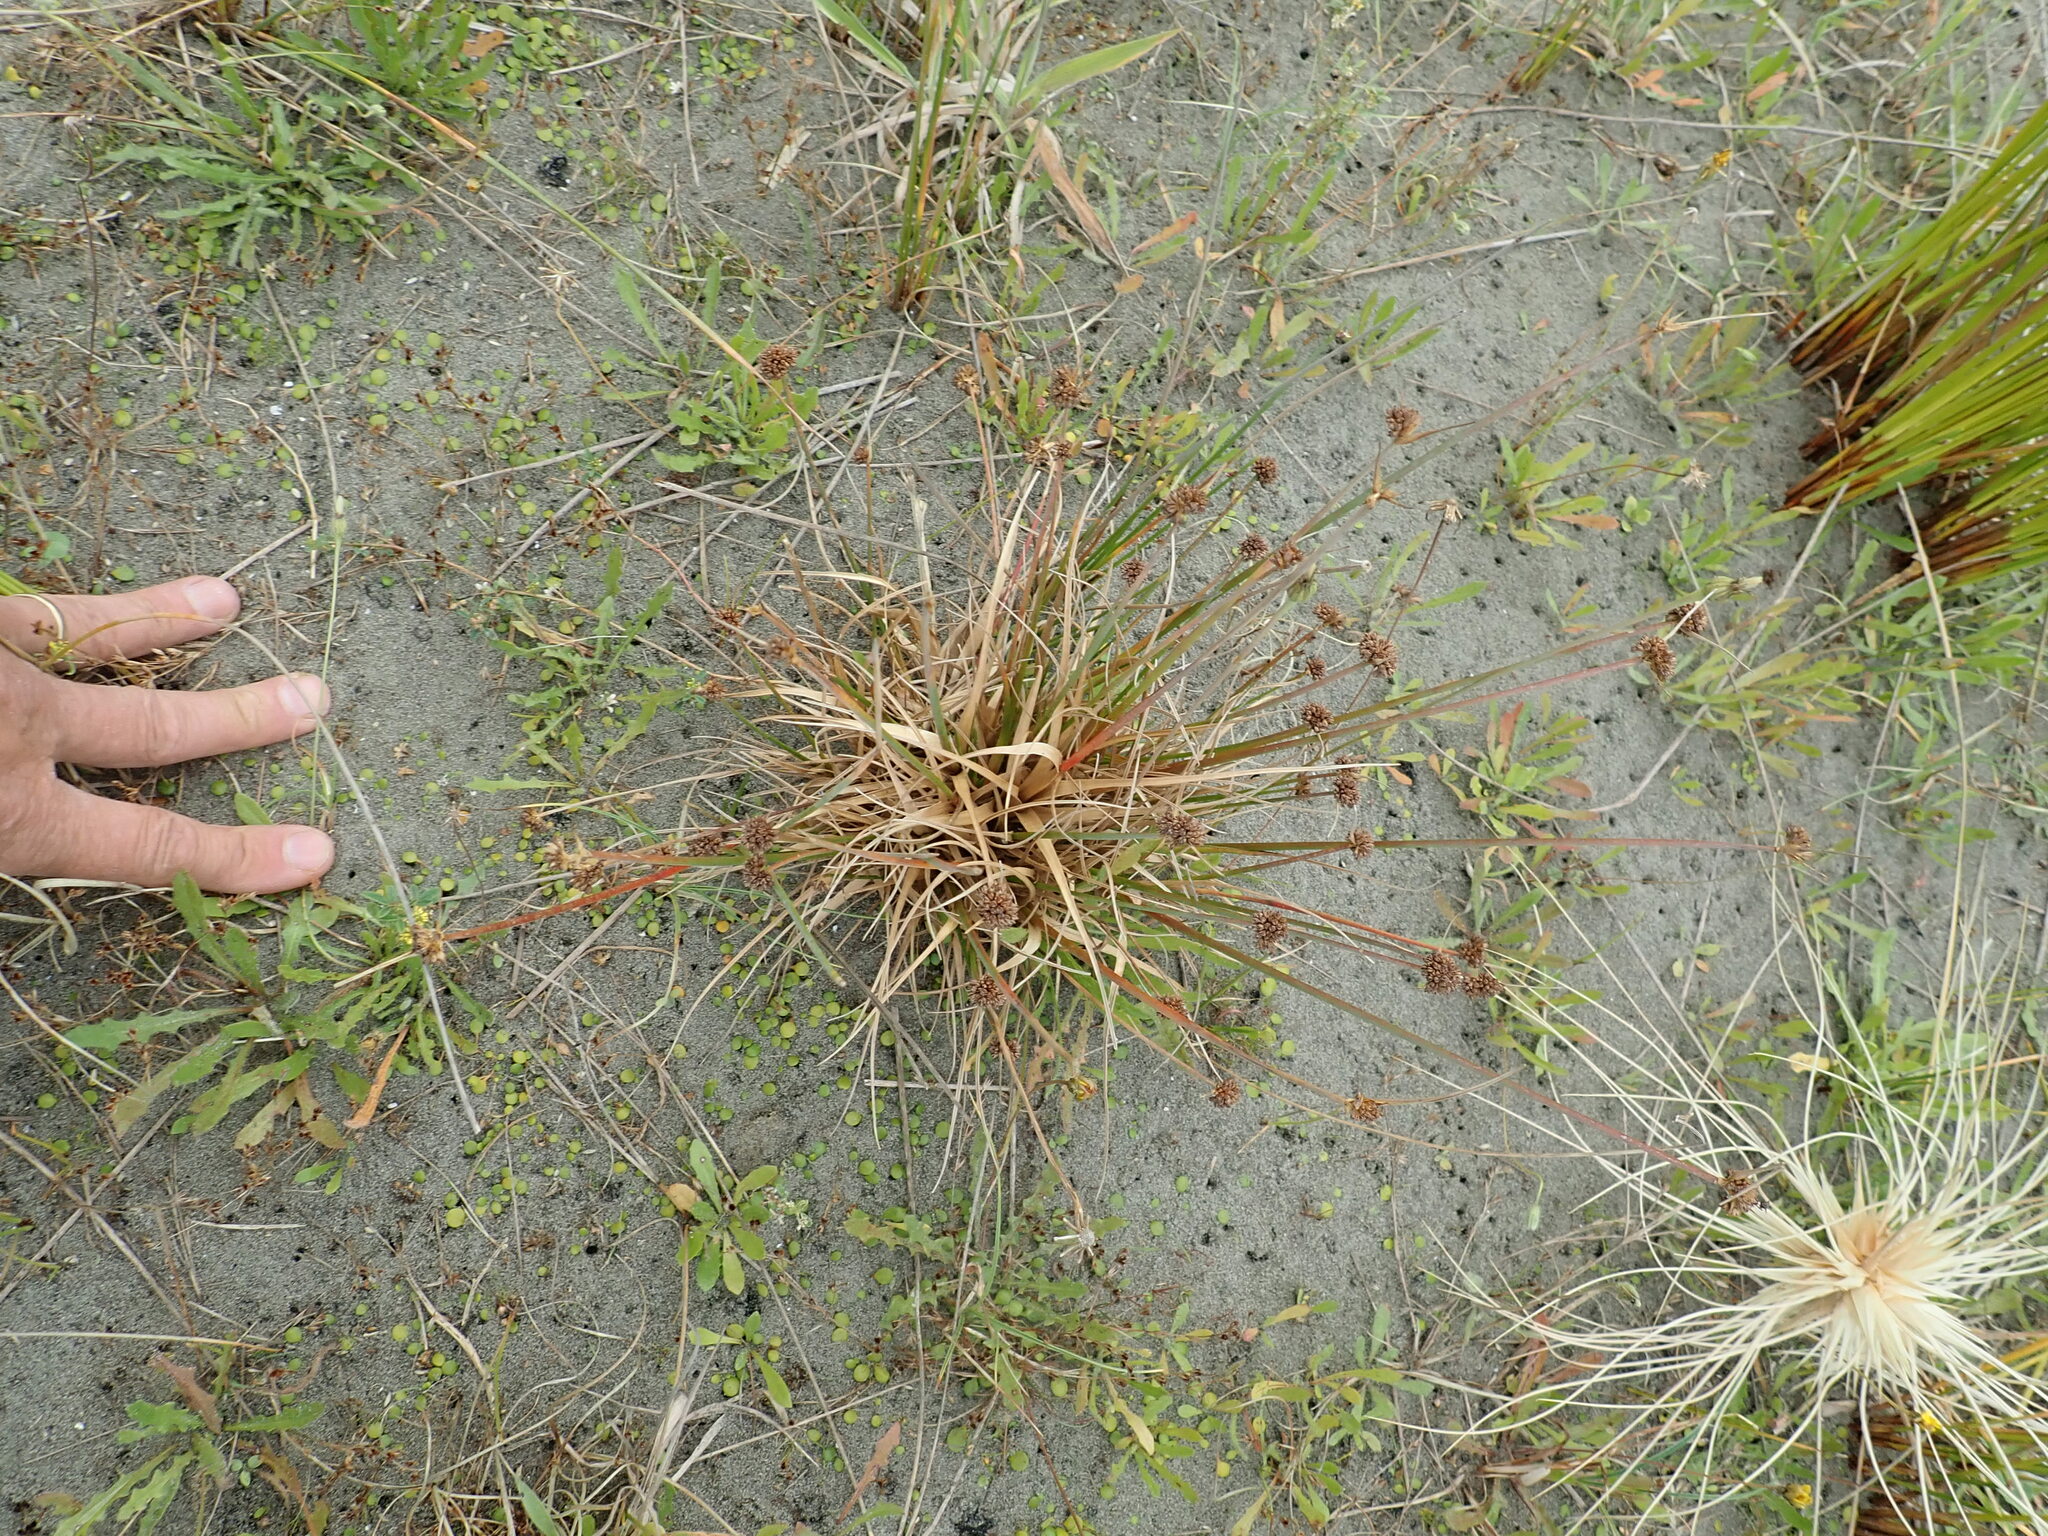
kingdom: Plantae
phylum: Tracheophyta
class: Liliopsida
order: Poales
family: Juncaceae
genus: Juncus
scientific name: Juncus caespiticius
